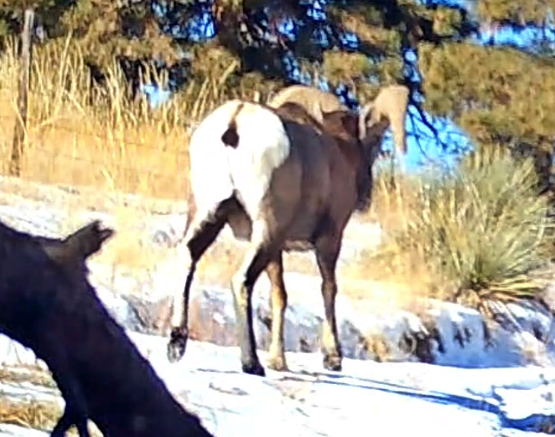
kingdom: Animalia
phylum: Chordata
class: Mammalia
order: Artiodactyla
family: Bovidae
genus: Ovis
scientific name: Ovis canadensis
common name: Bighorn sheep
